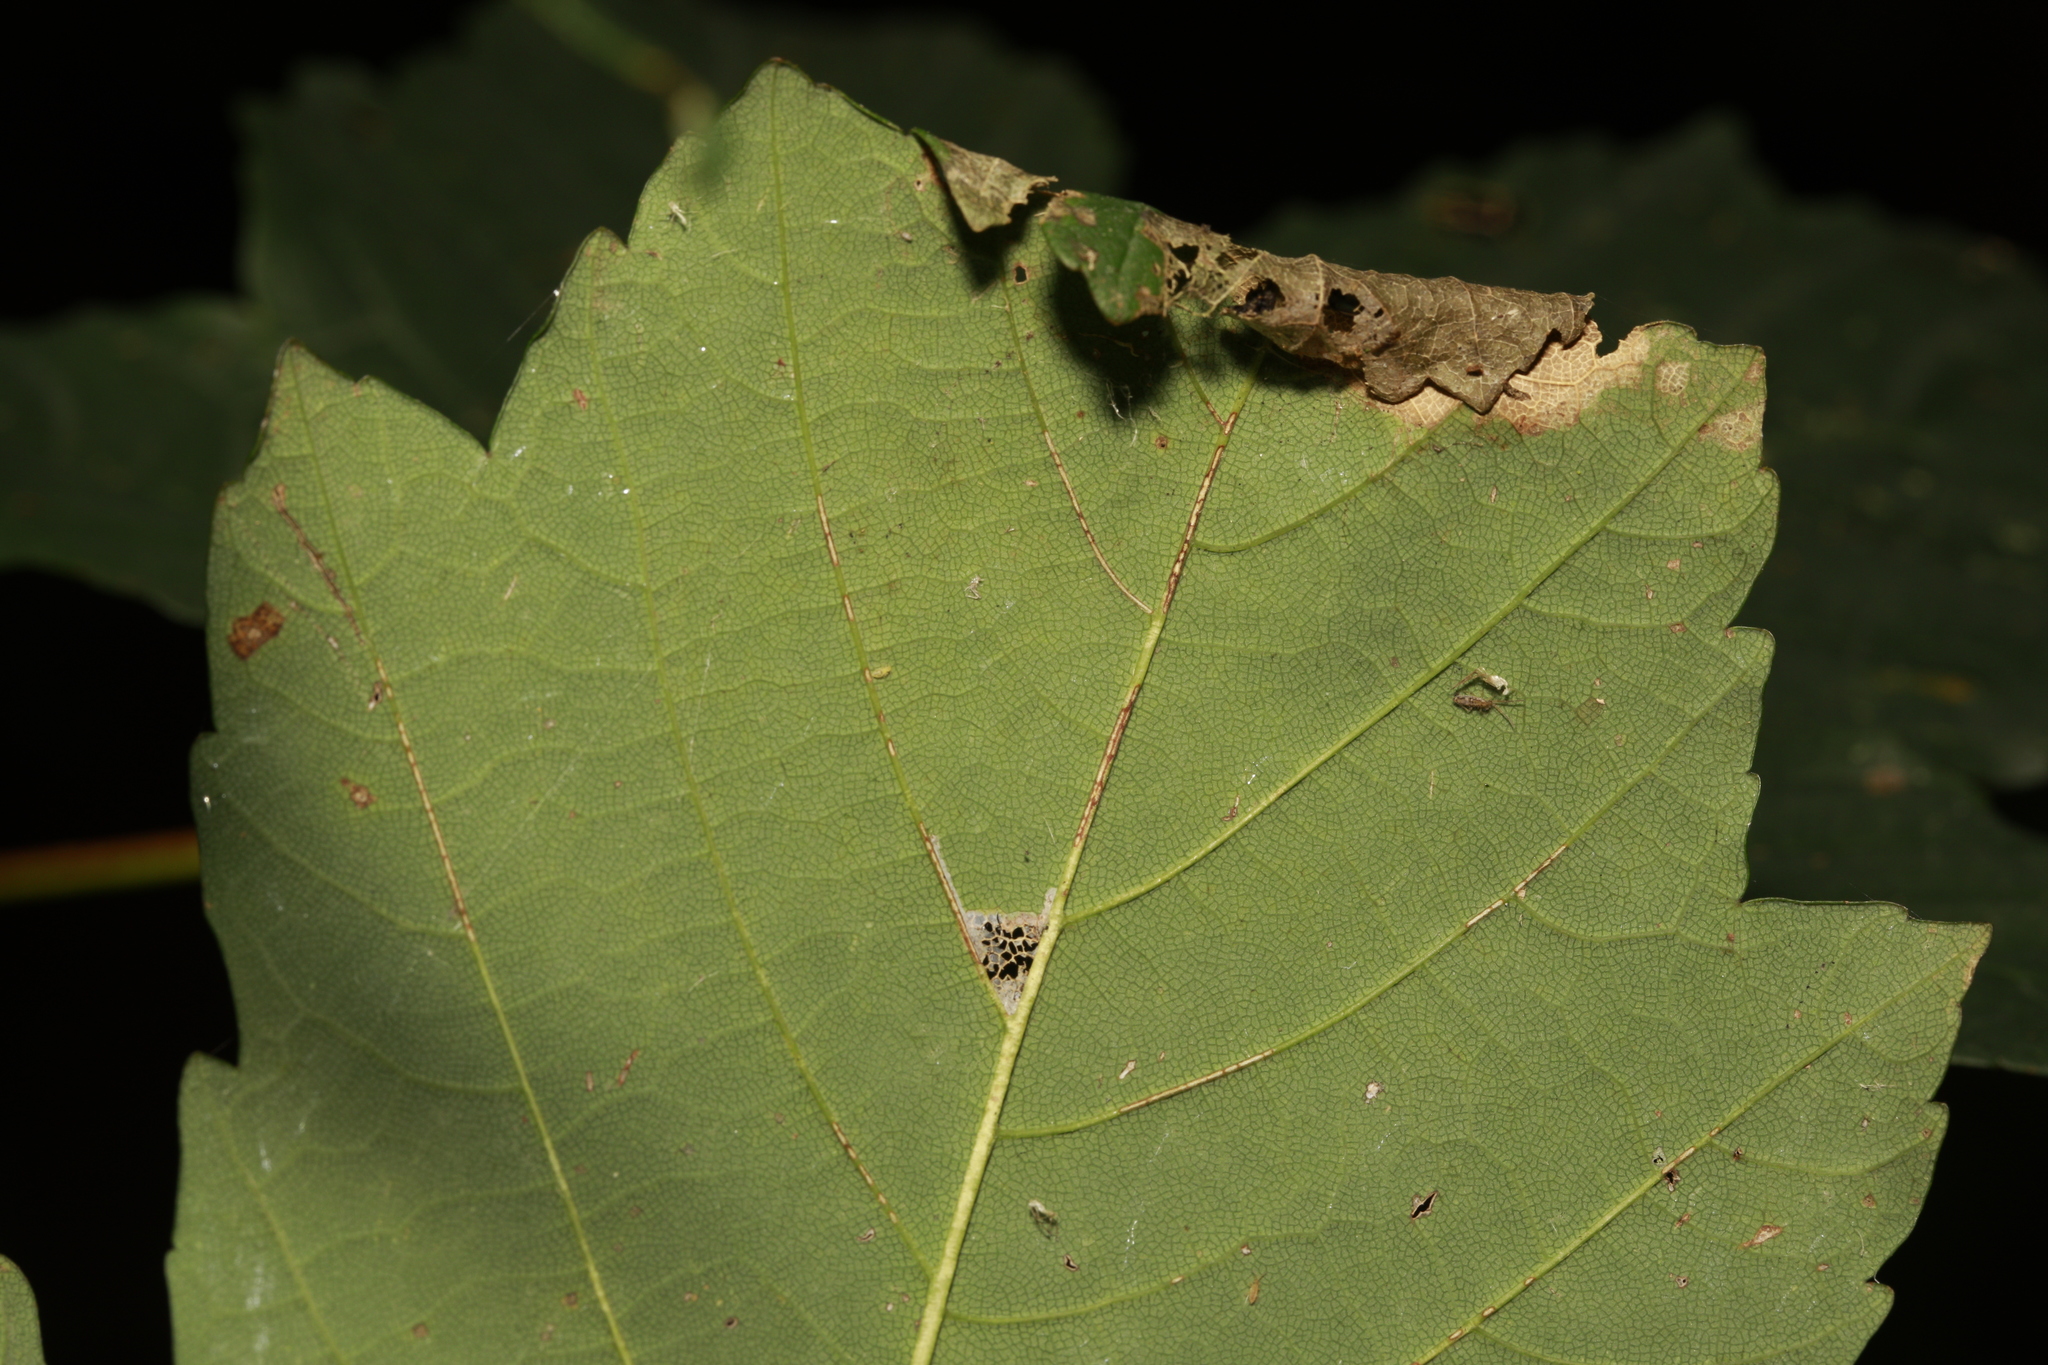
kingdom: Animalia
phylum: Arthropoda
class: Insecta
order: Lepidoptera
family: Gracillariidae
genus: Caloptilia
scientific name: Caloptilia rufipennella
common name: Small red slender
